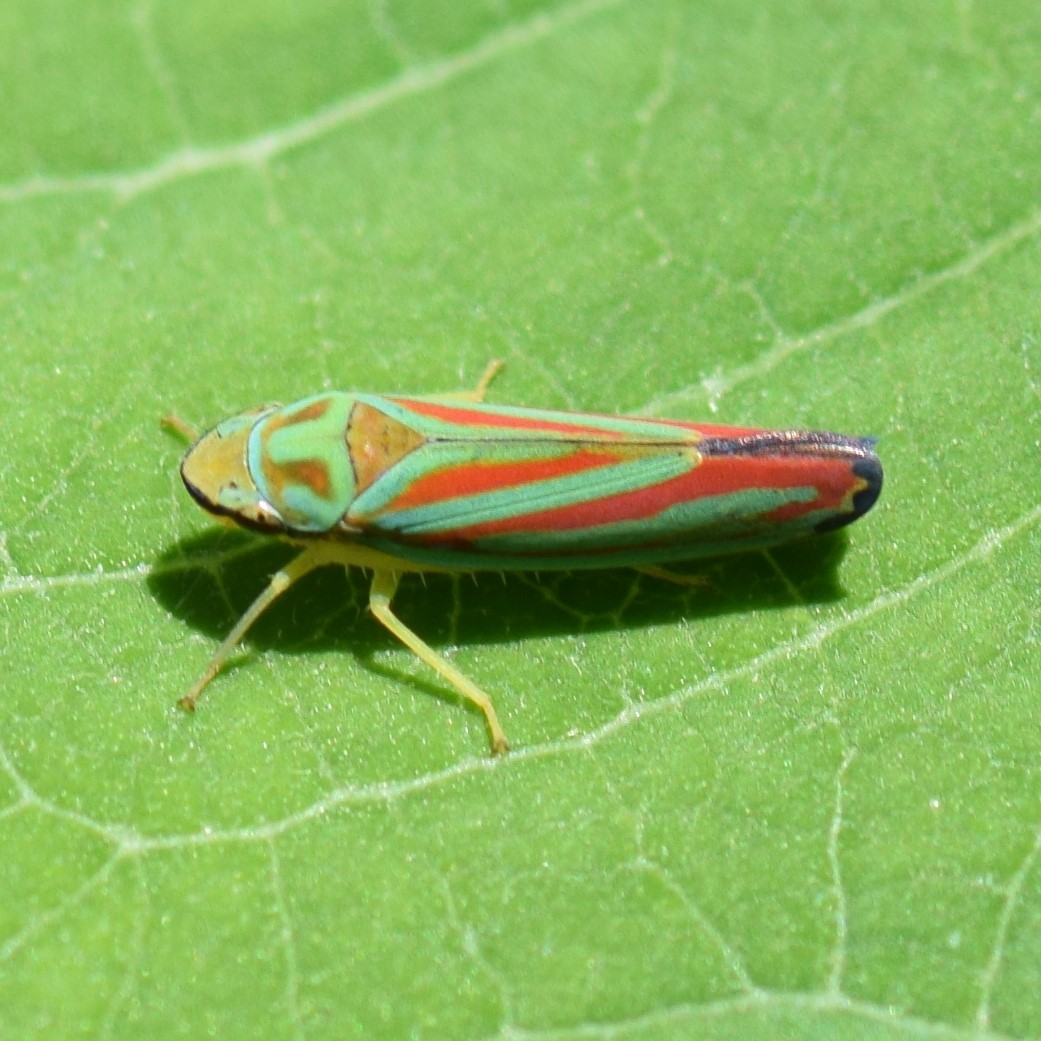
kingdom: Animalia
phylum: Arthropoda
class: Insecta
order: Hemiptera
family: Cicadellidae
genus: Graphocephala
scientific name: Graphocephala coccinea
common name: Candy-striped leafhopper
